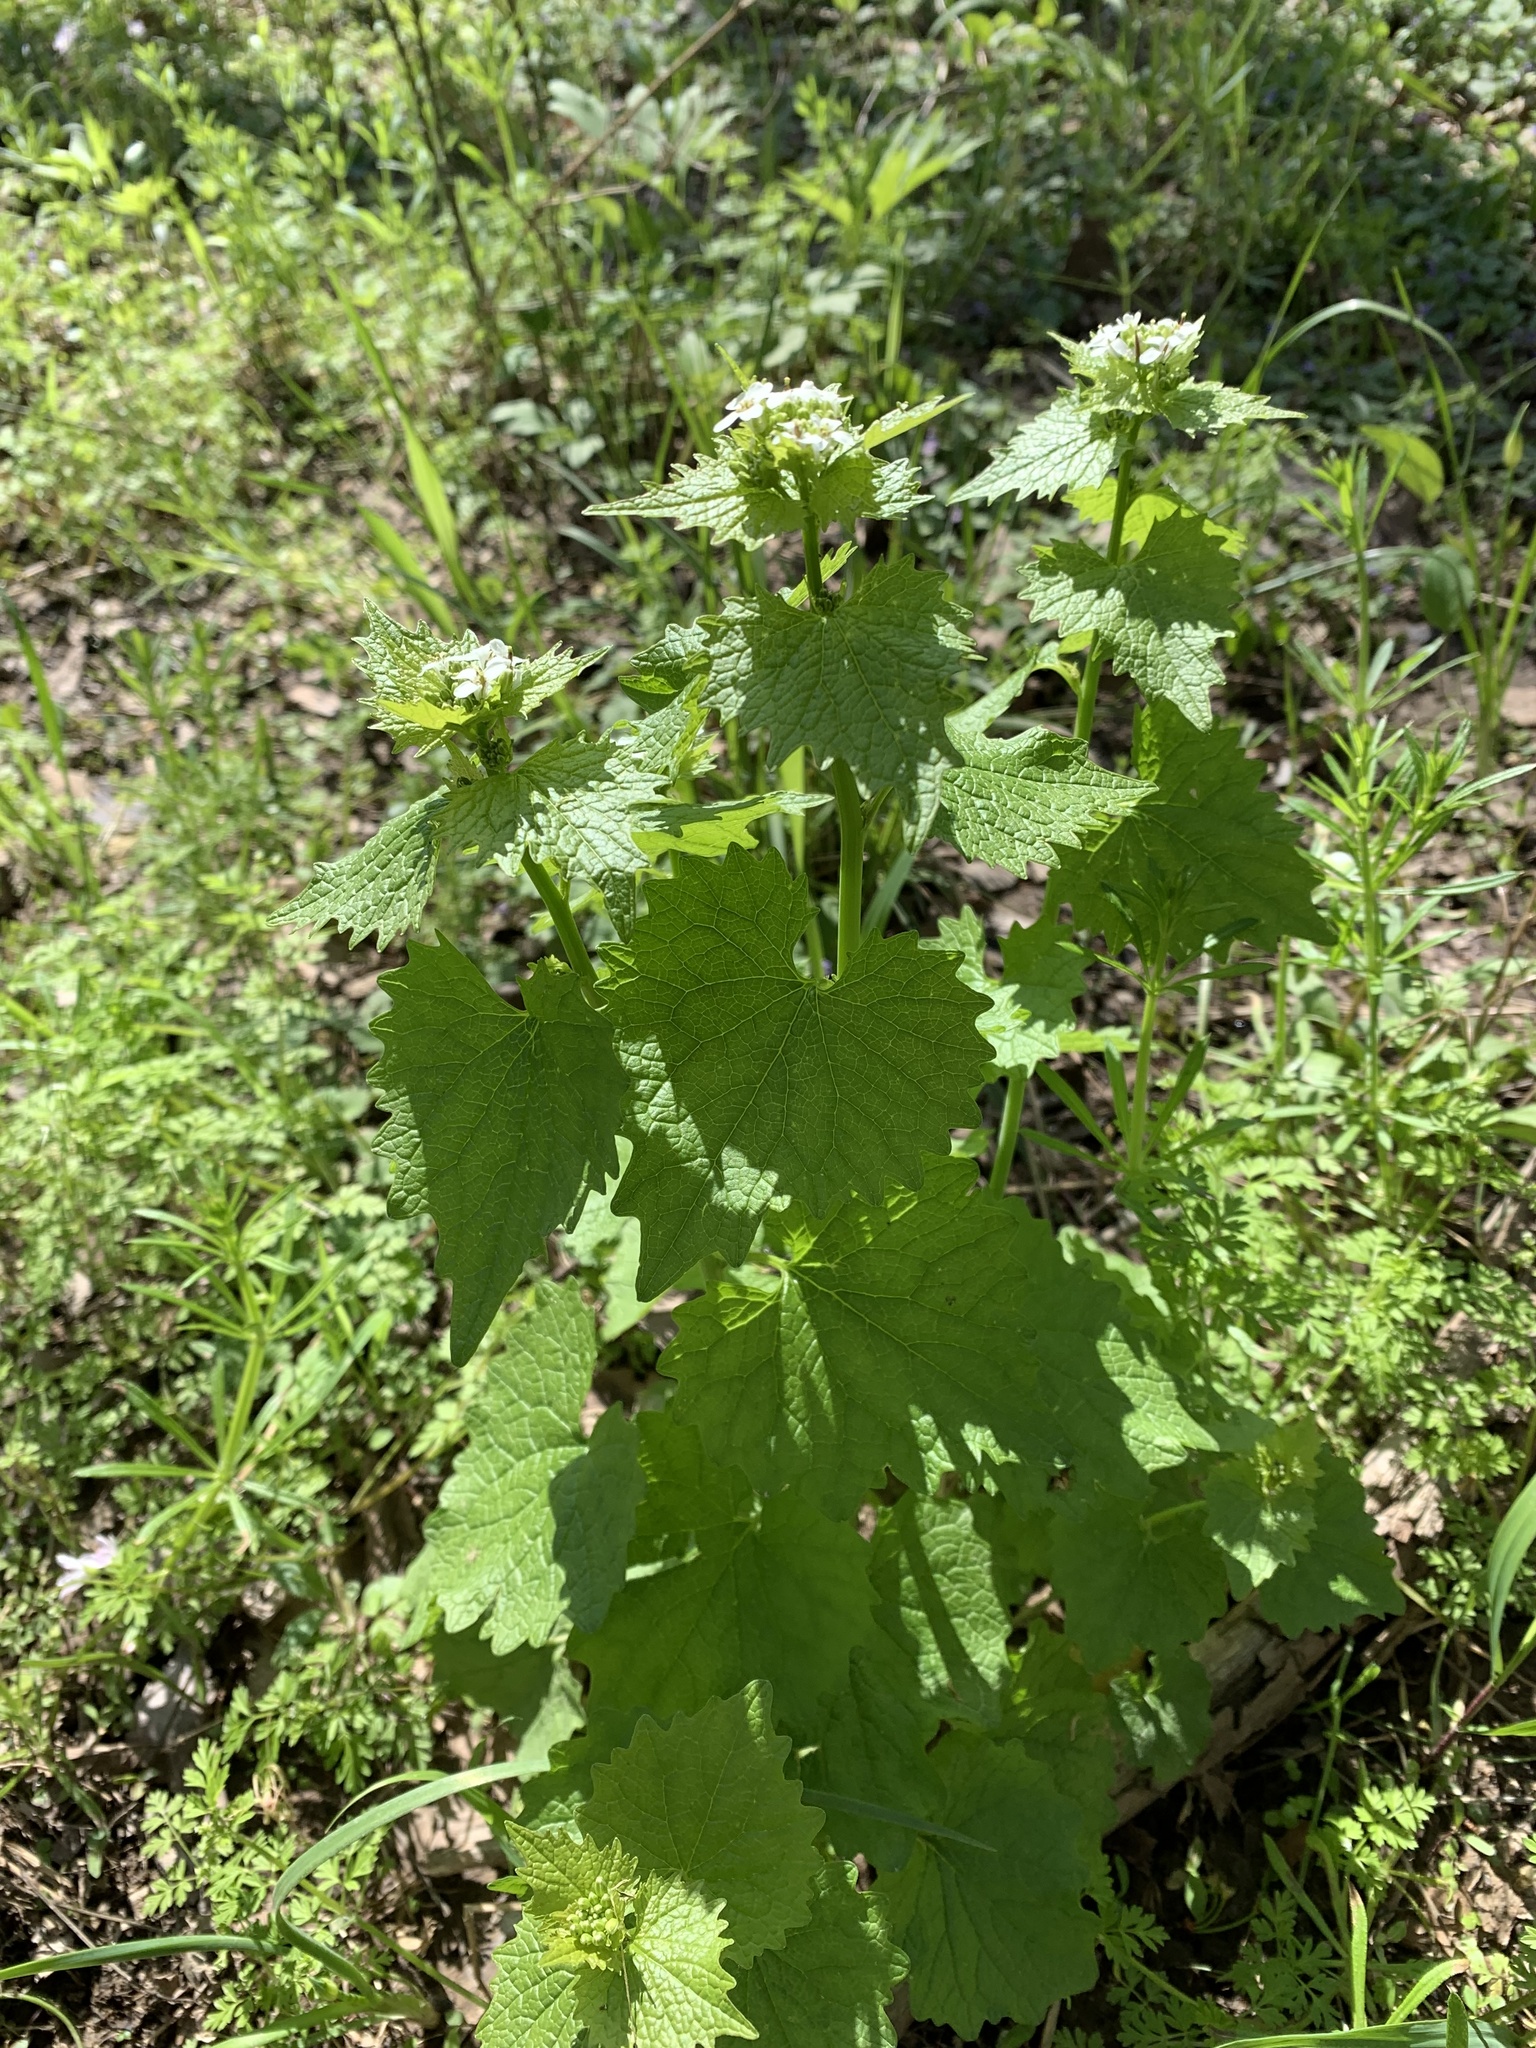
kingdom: Plantae
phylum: Tracheophyta
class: Magnoliopsida
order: Brassicales
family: Brassicaceae
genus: Alliaria
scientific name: Alliaria petiolata
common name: Garlic mustard
